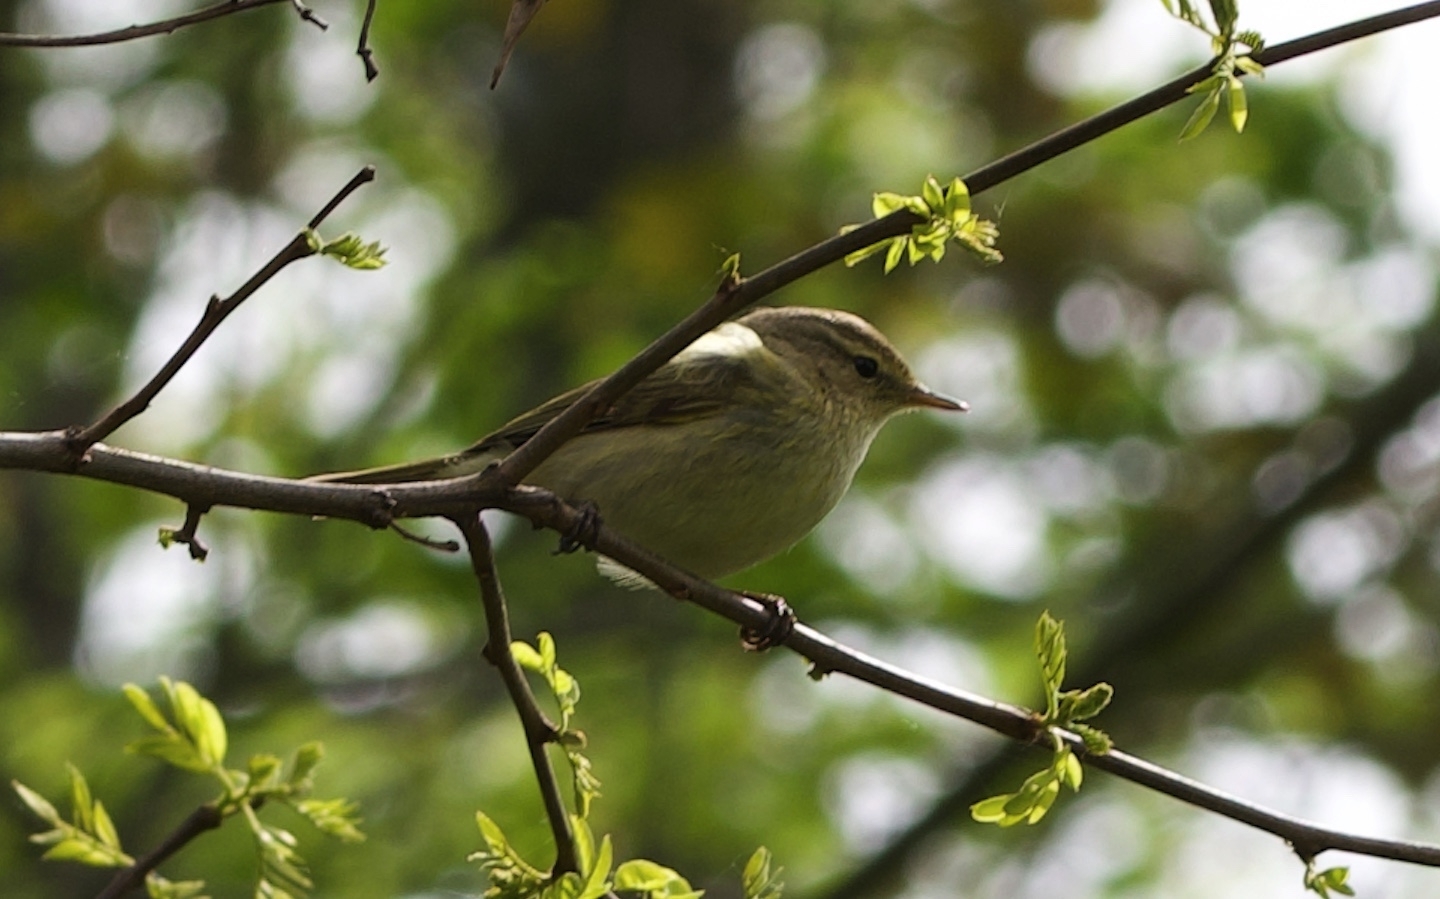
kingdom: Animalia
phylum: Chordata
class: Aves
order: Passeriformes
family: Phylloscopidae
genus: Phylloscopus
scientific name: Phylloscopus collybita
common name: Common chiffchaff
